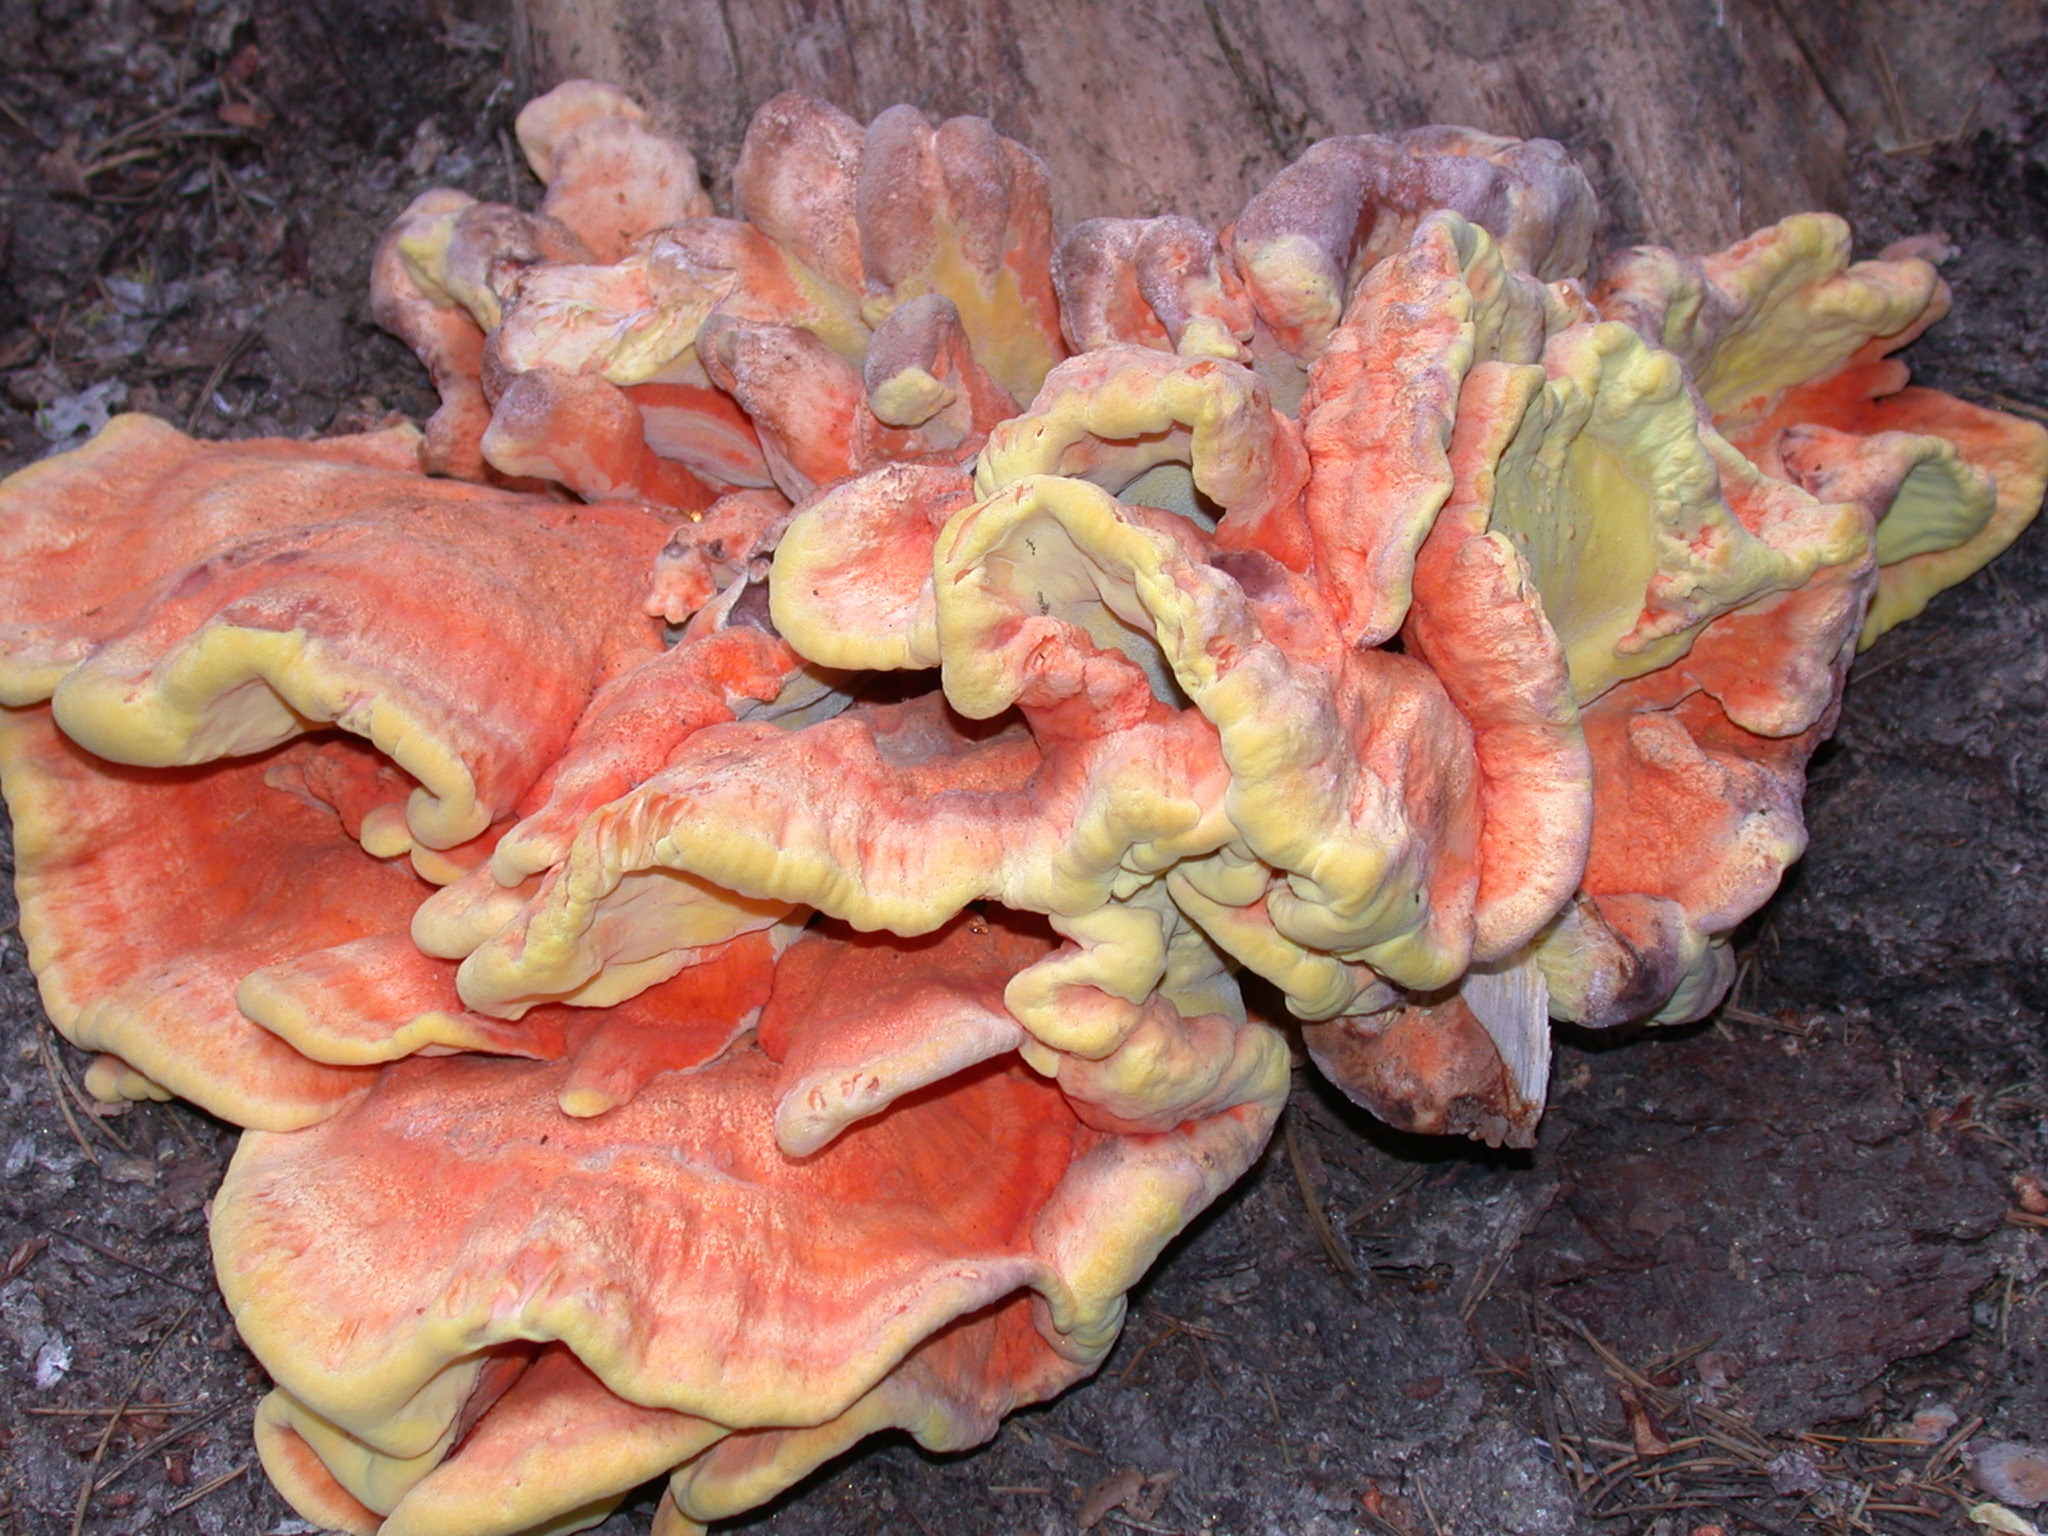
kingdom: Fungi
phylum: Basidiomycota
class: Agaricomycetes
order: Polyporales
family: Laetiporaceae
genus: Laetiporus
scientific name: Laetiporus conifericola
